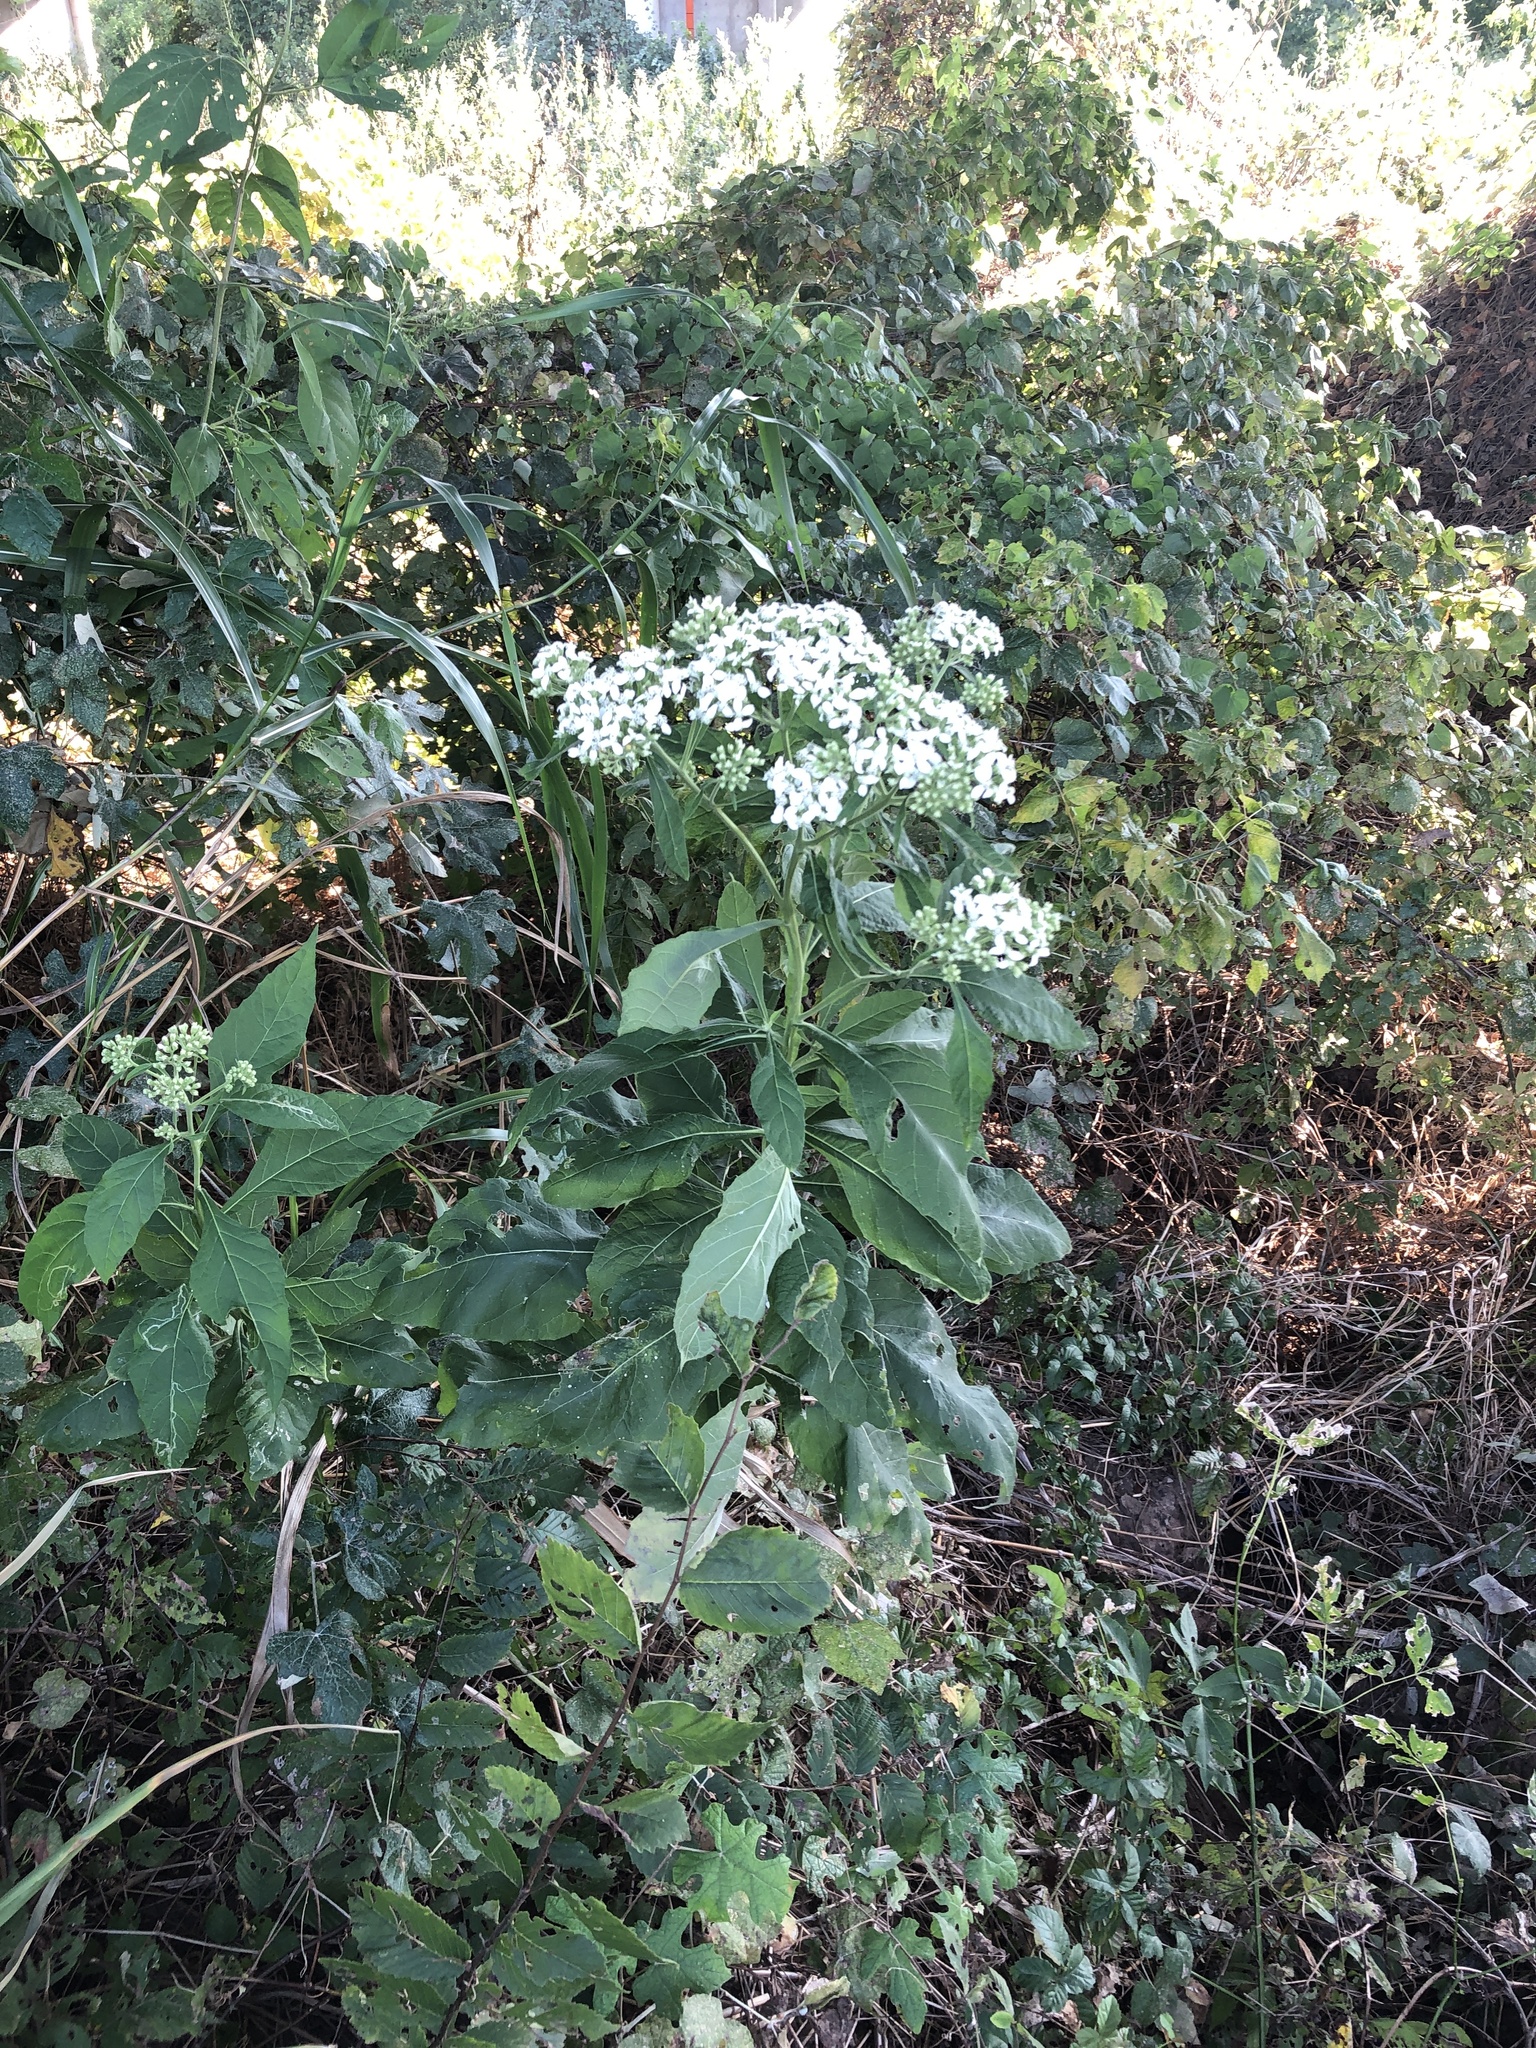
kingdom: Plantae
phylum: Tracheophyta
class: Magnoliopsida
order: Asterales
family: Asteraceae
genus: Verbesina
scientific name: Verbesina virginica
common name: Frostweed
